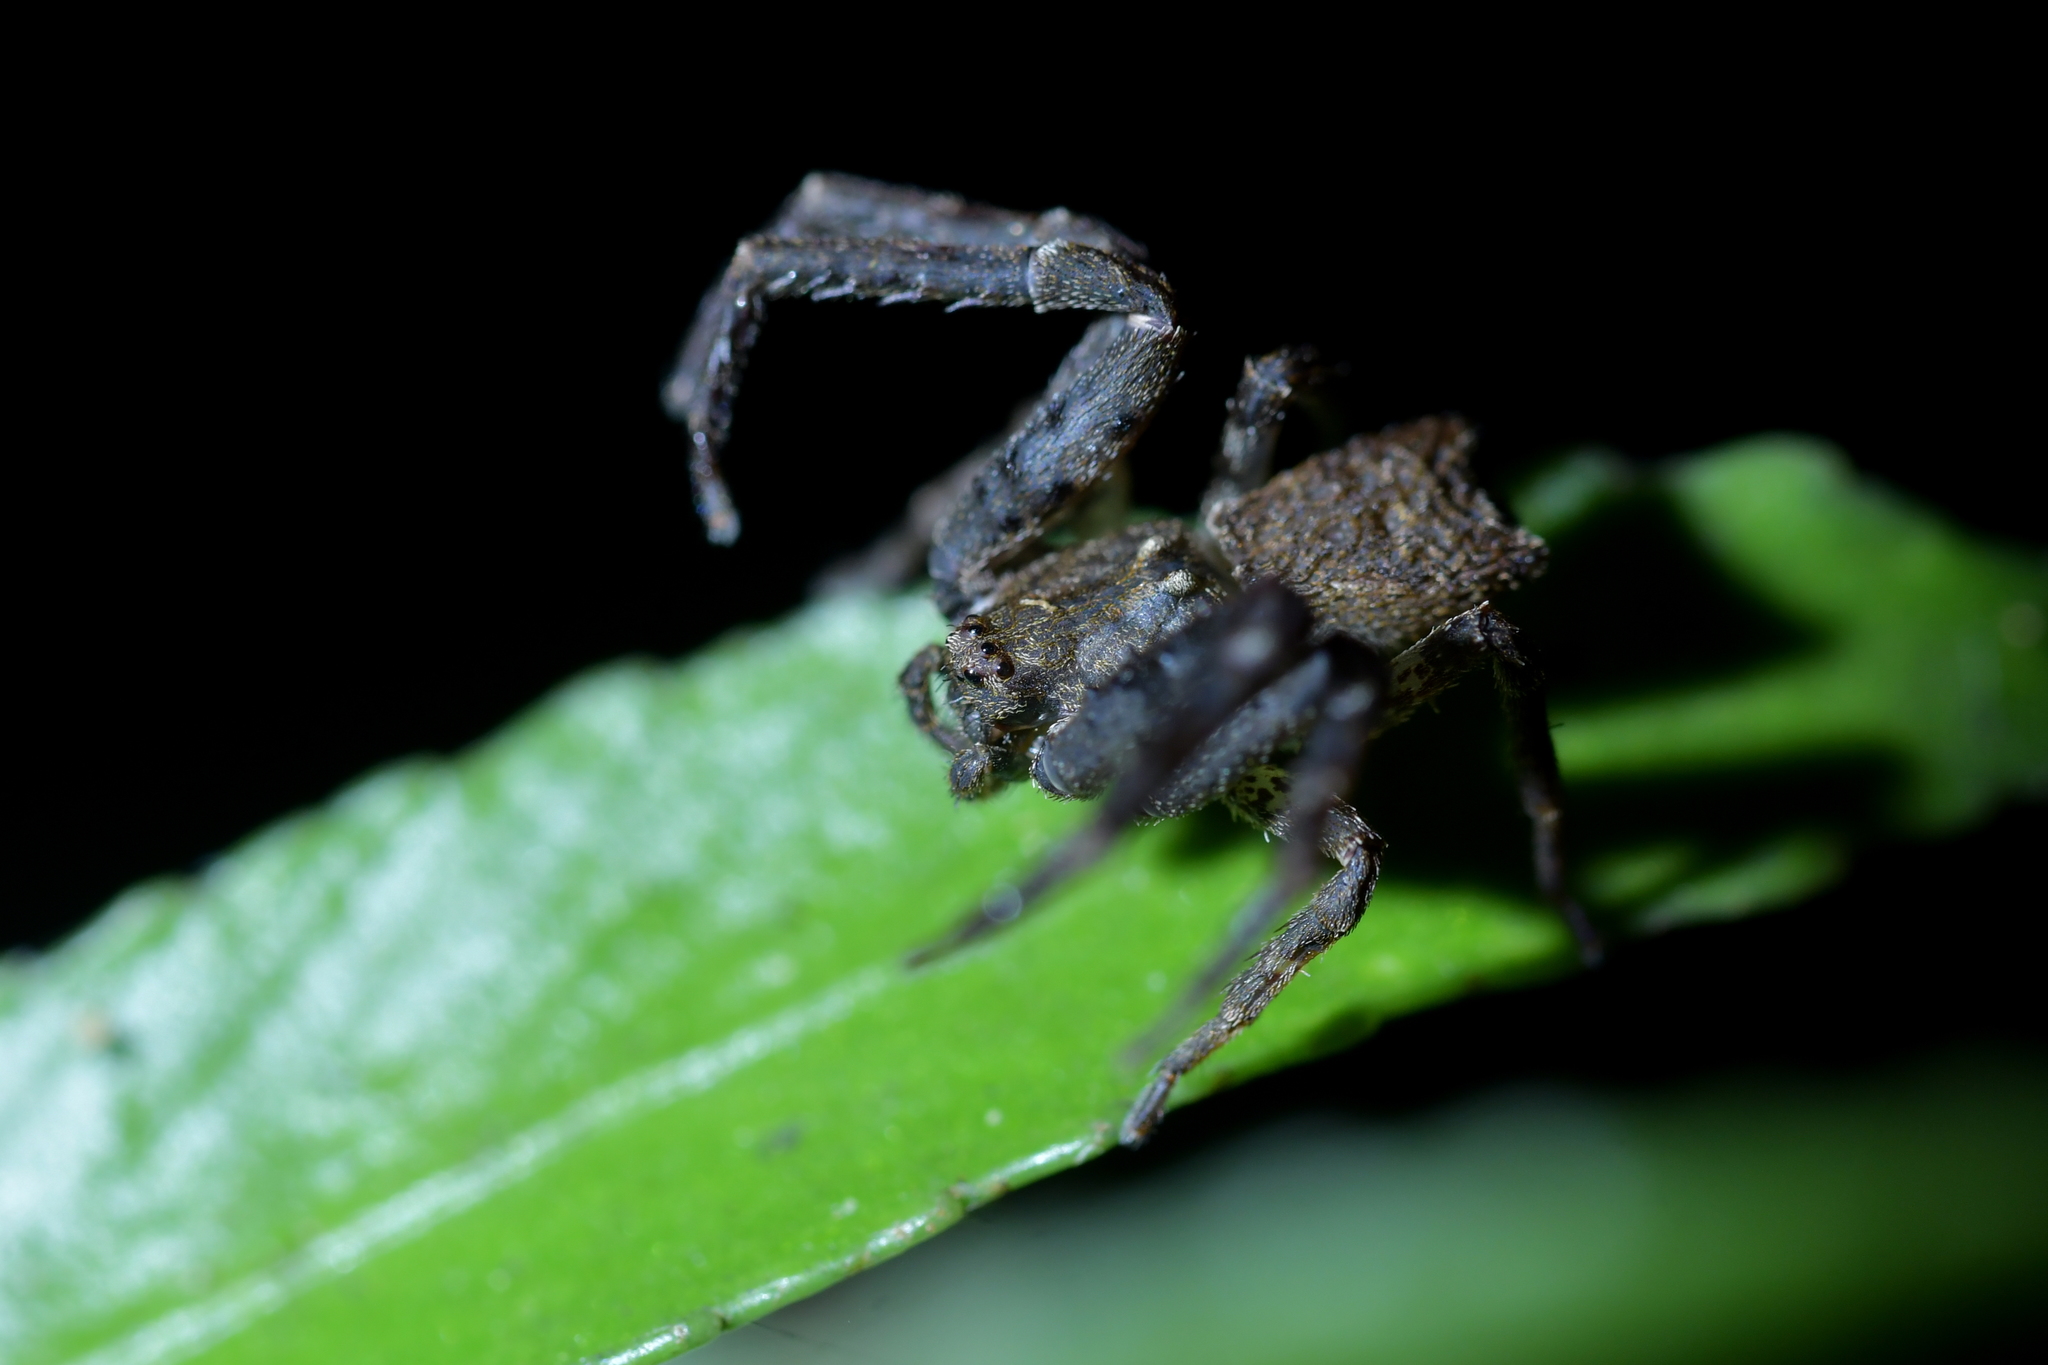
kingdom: Animalia
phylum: Arthropoda
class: Arachnida
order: Araneae
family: Thomisidae
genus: Sidymella
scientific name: Sidymella angularis
